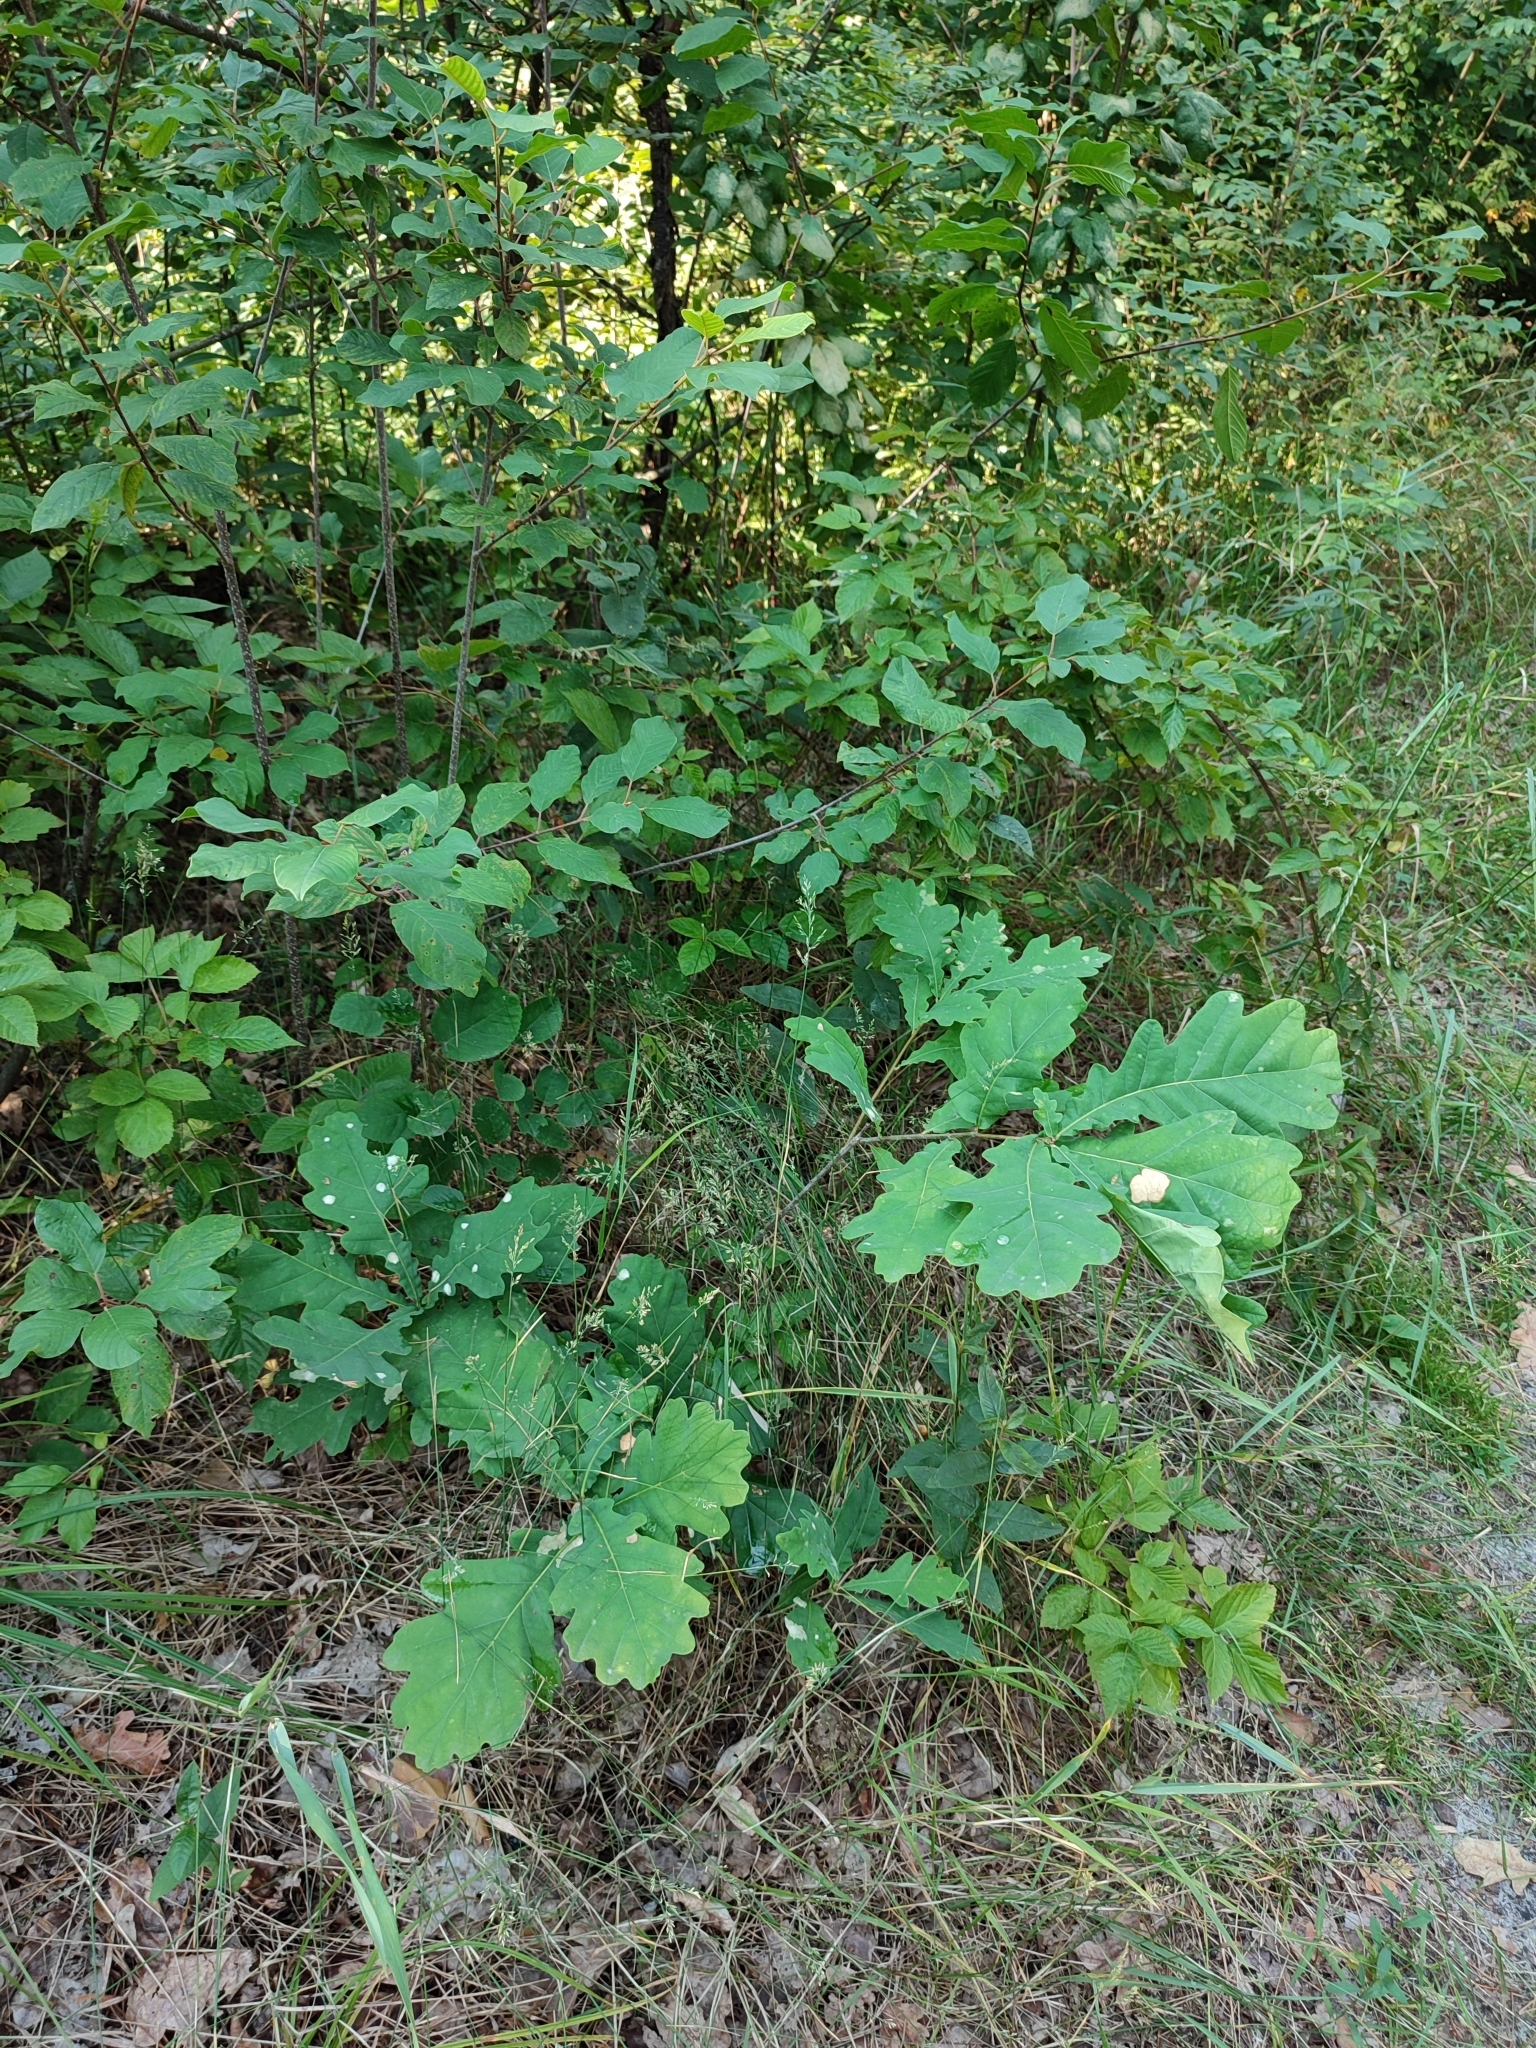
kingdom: Plantae
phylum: Tracheophyta
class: Magnoliopsida
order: Fagales
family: Fagaceae
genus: Quercus
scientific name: Quercus robur
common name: Pedunculate oak
